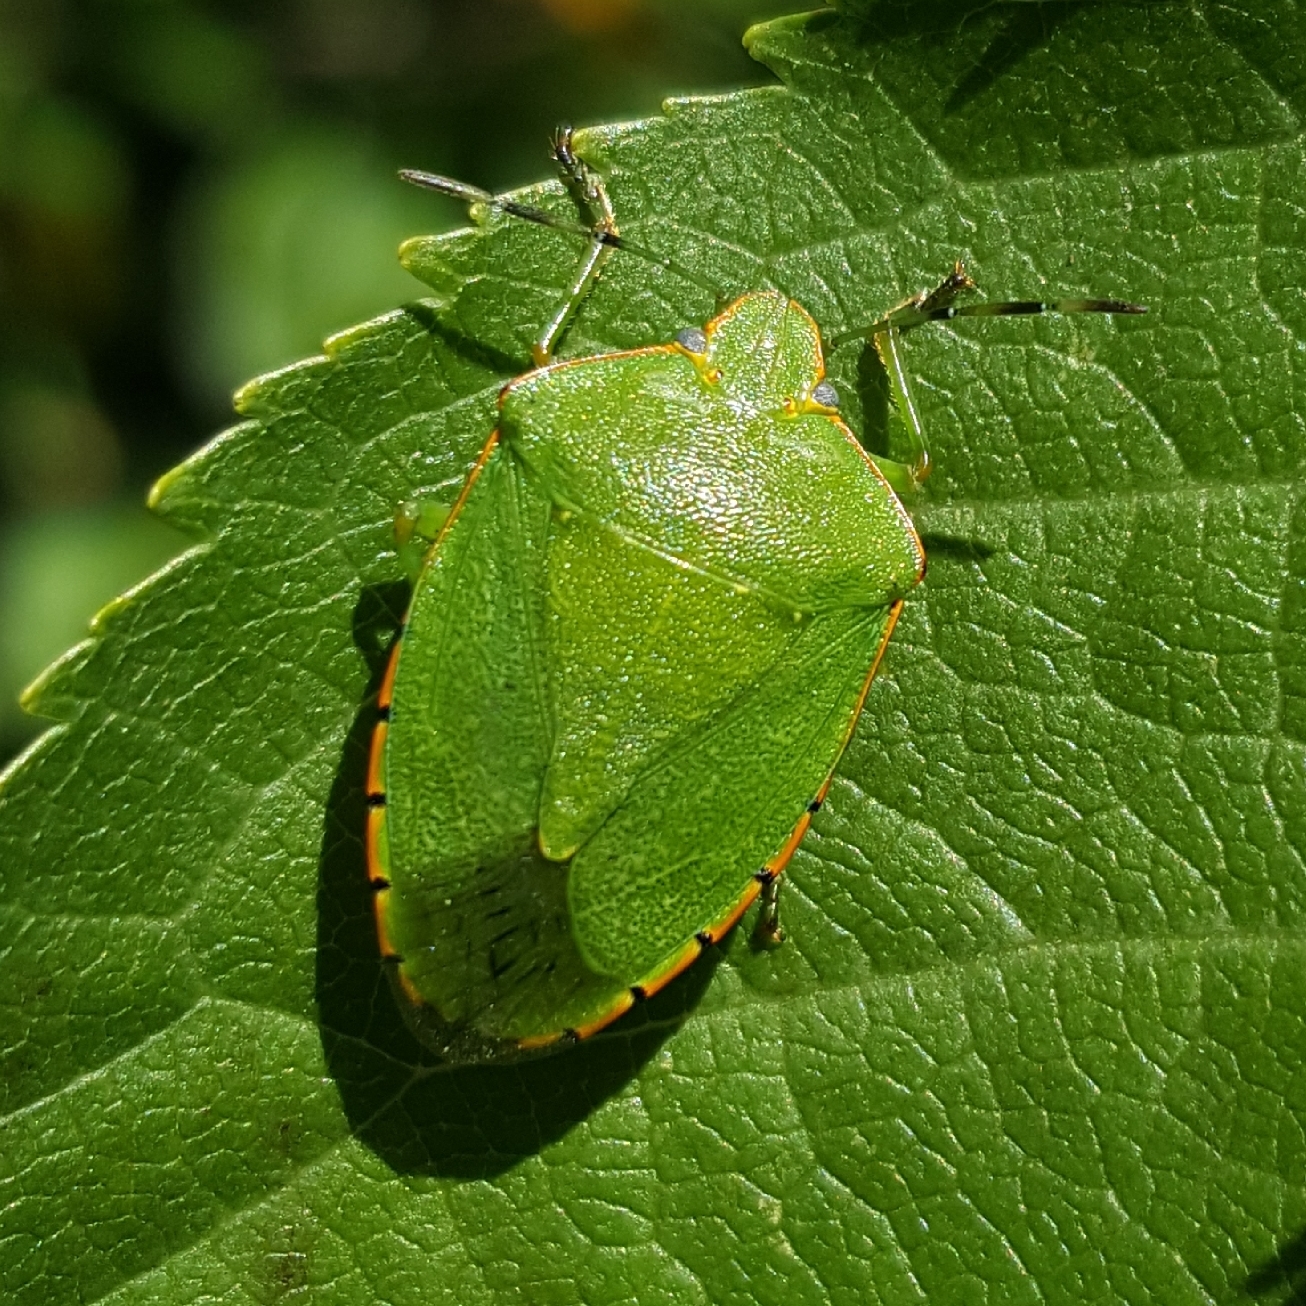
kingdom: Animalia
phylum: Arthropoda
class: Insecta
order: Hemiptera
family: Pentatomidae
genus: Chinavia
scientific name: Chinavia hilaris
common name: Green stink bug
